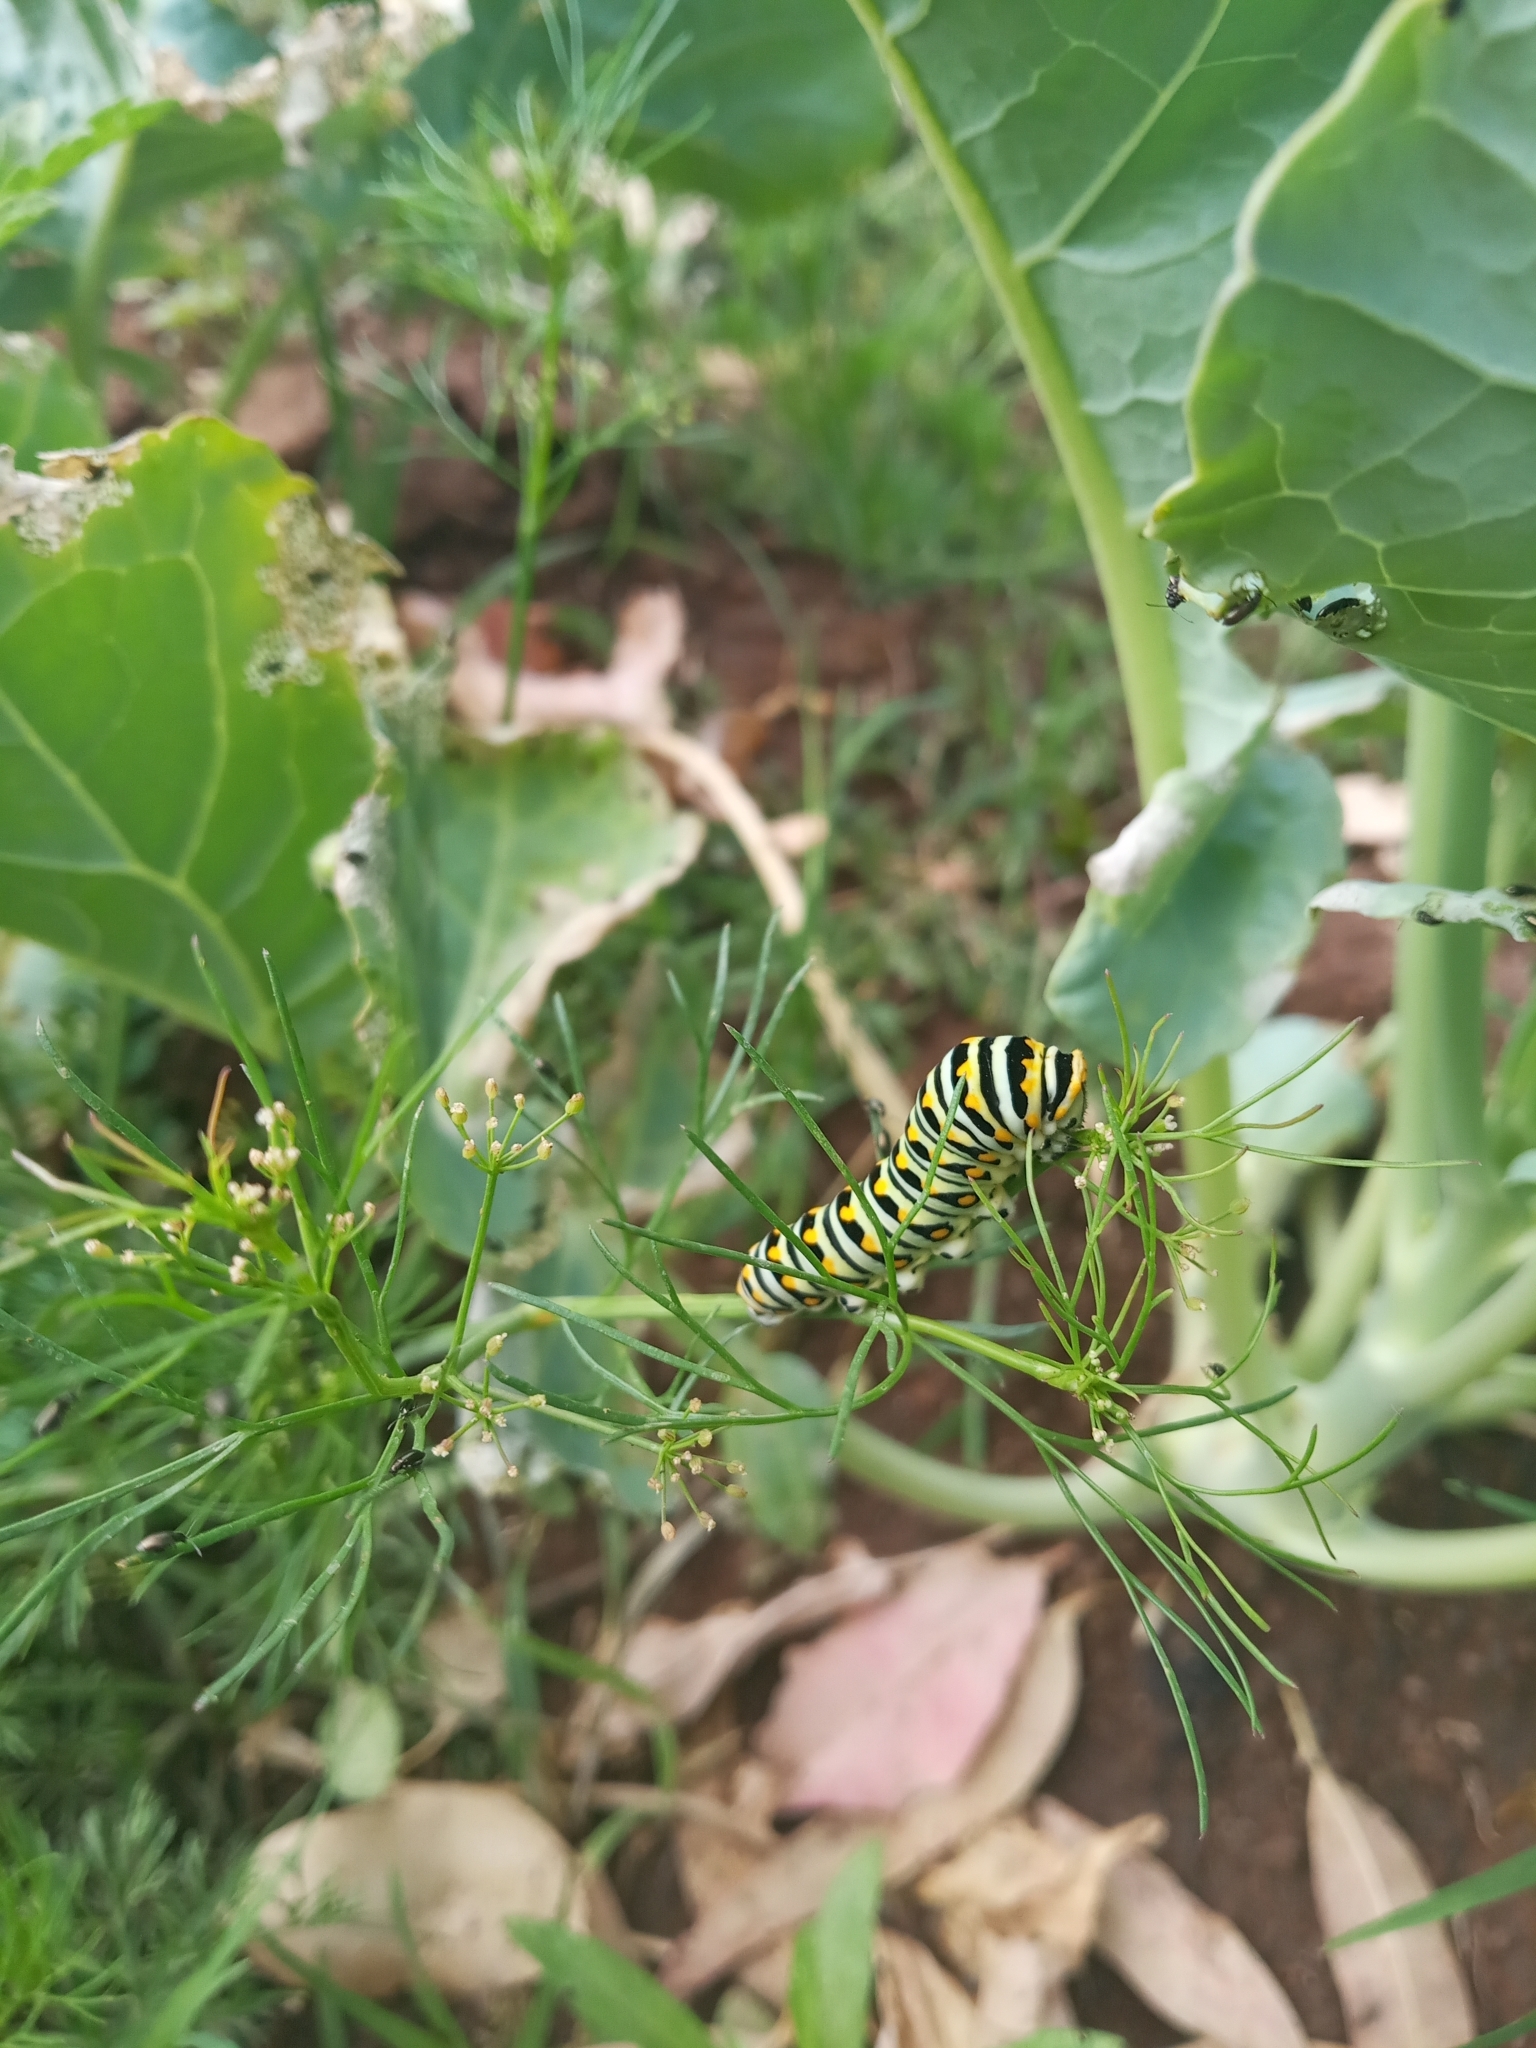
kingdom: Animalia
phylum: Arthropoda
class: Insecta
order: Lepidoptera
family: Papilionidae
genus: Papilio
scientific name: Papilio polyxenes
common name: Black swallowtail
